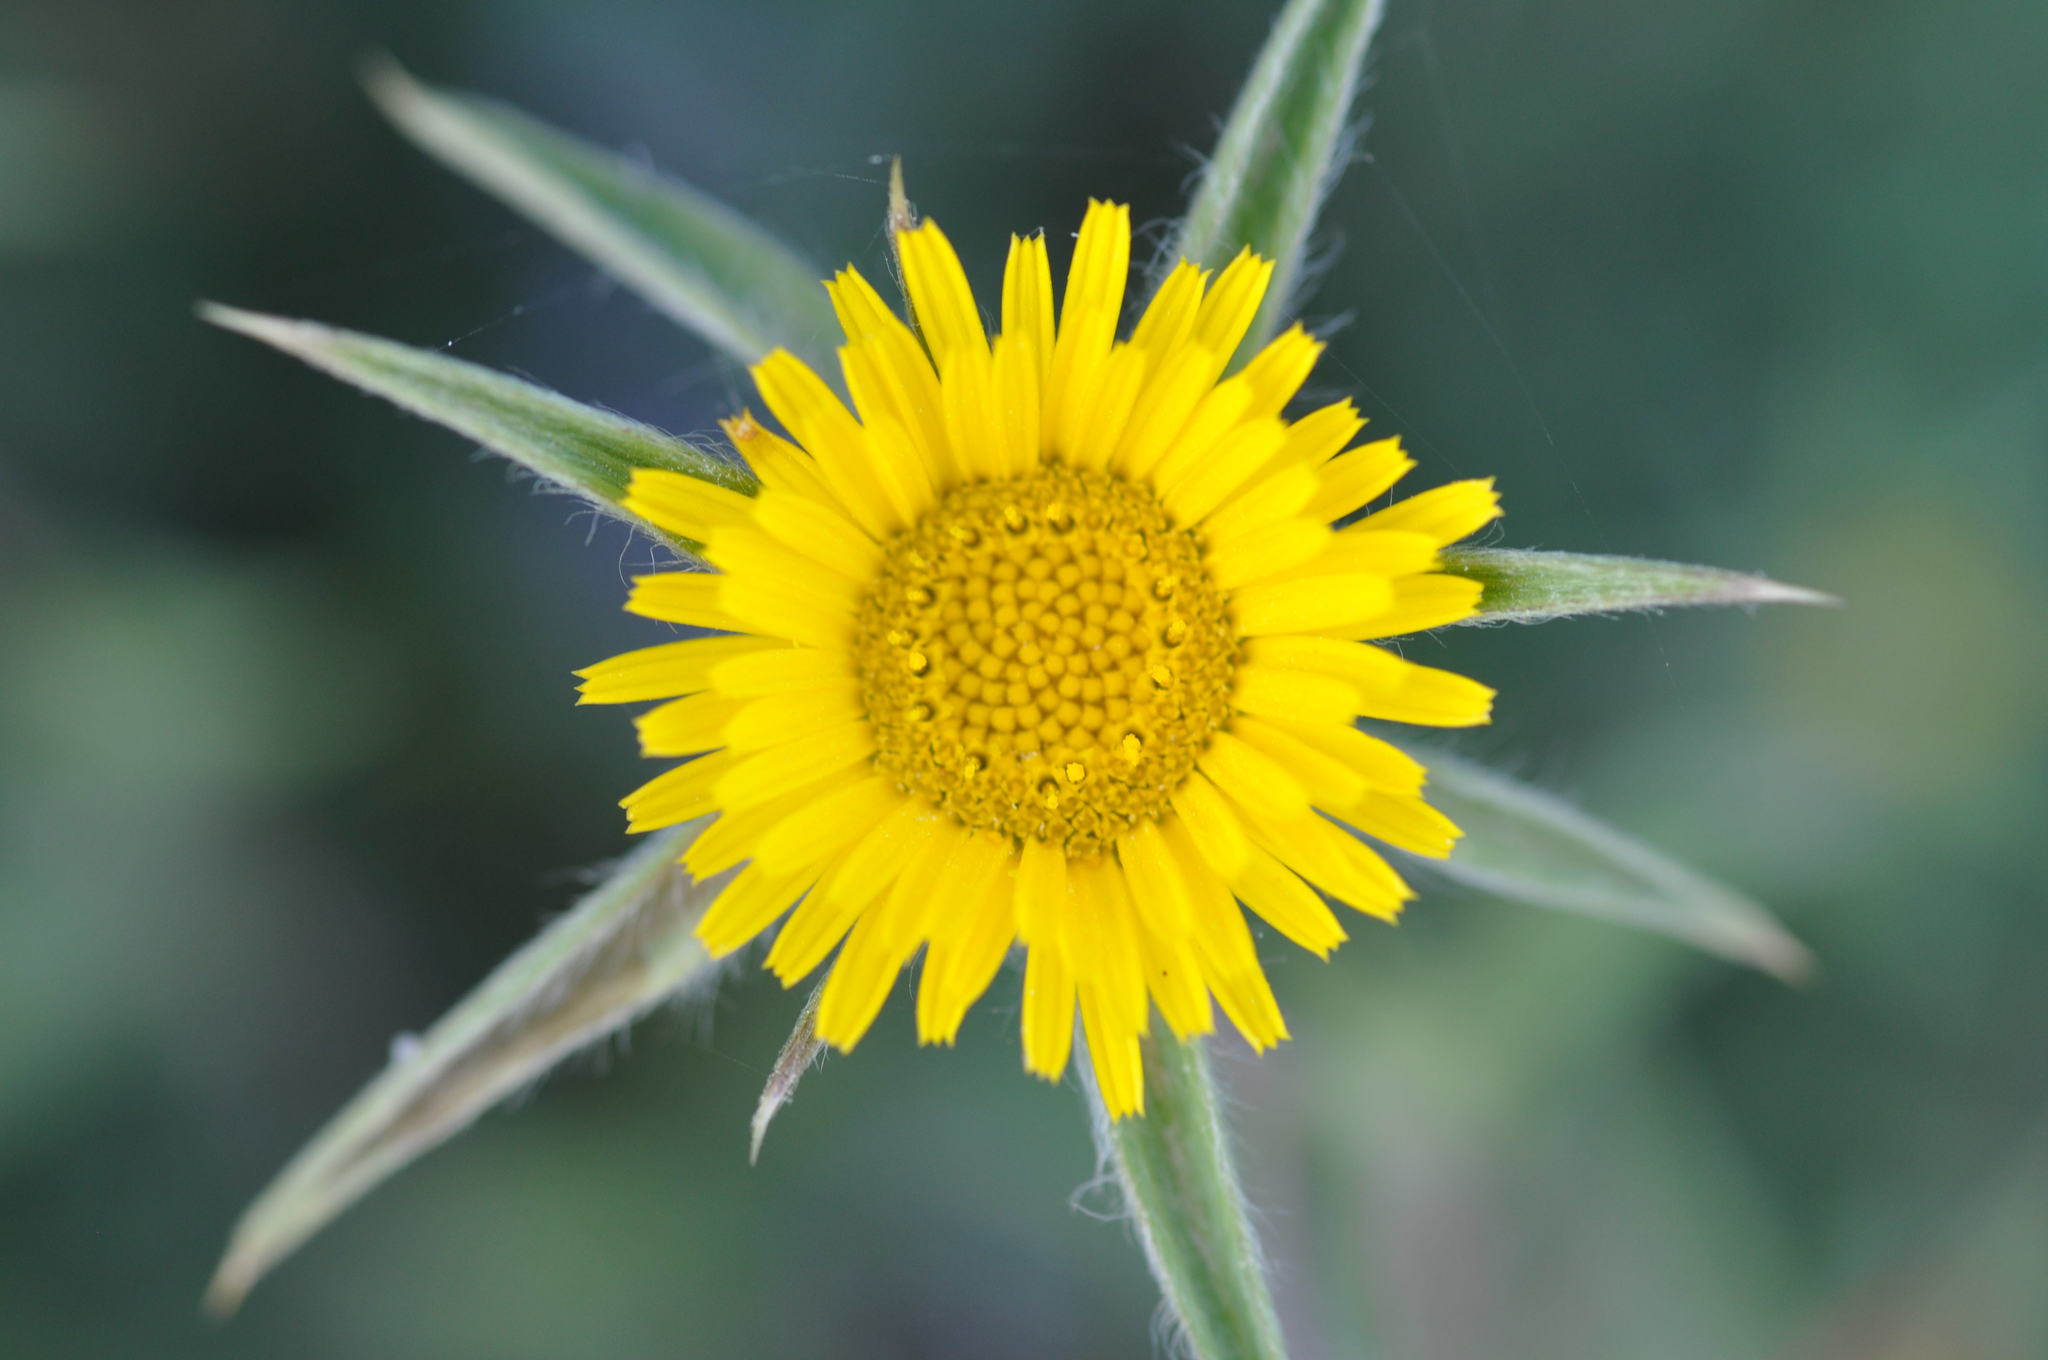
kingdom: Plantae
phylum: Tracheophyta
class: Magnoliopsida
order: Asterales
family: Asteraceae
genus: Pallenis
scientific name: Pallenis spinosa
